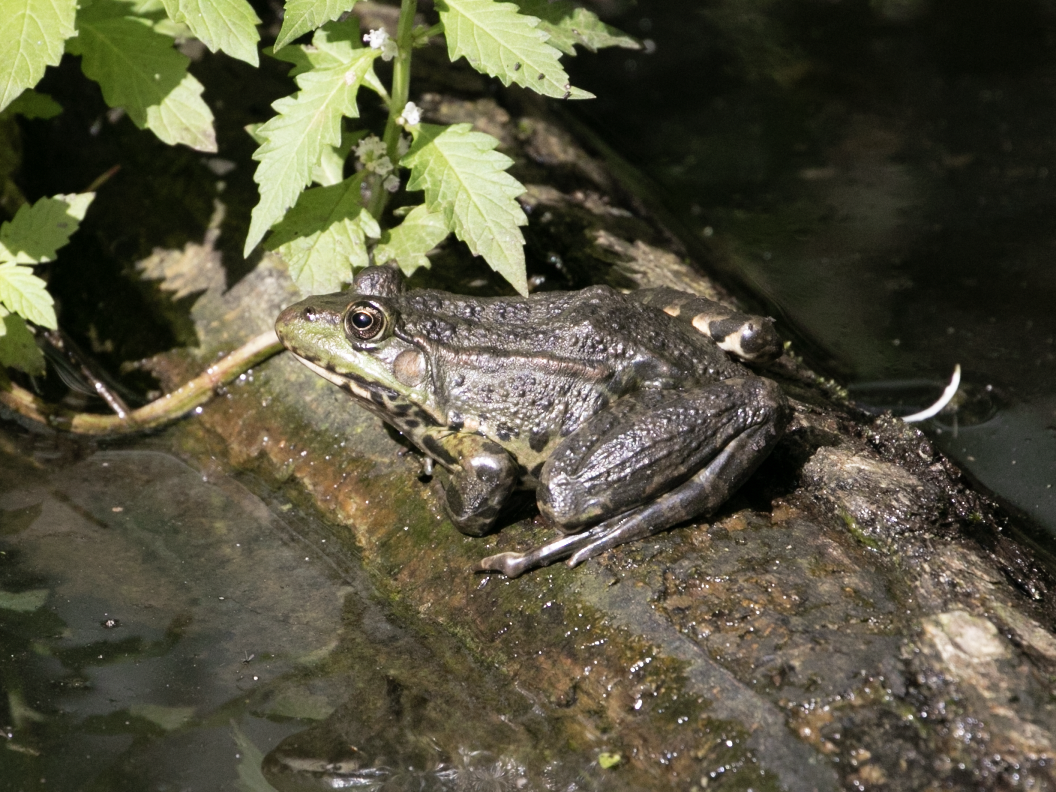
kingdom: Animalia
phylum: Chordata
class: Amphibia
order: Anura
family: Ranidae
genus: Pelophylax
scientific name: Pelophylax
